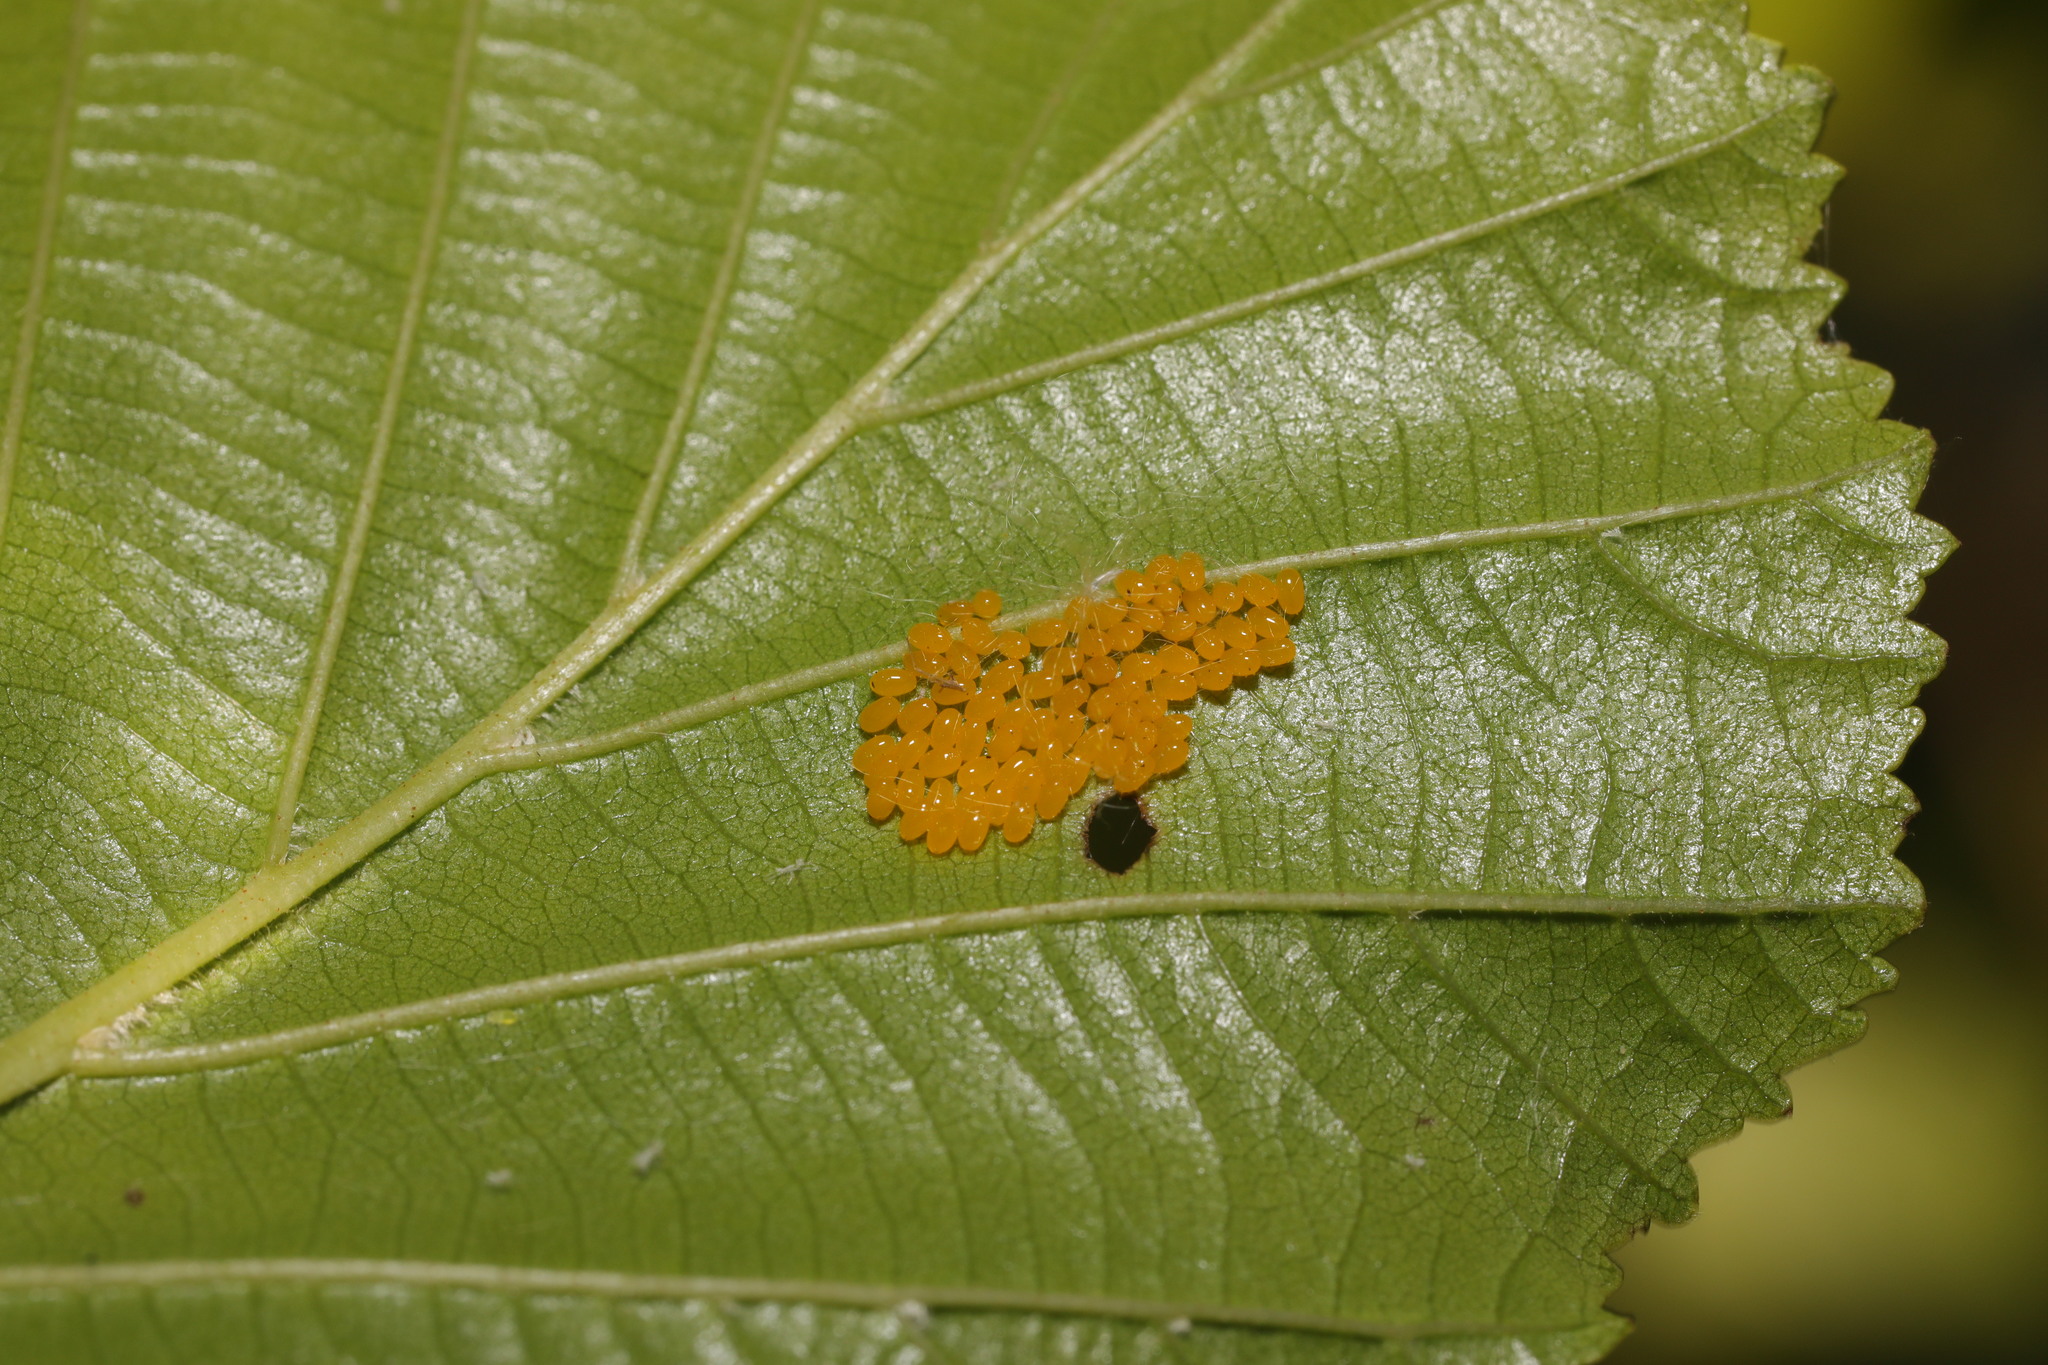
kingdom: Animalia
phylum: Arthropoda
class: Insecta
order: Coleoptera
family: Chrysomelidae
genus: Agelastica
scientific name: Agelastica alni
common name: Alder leaf beetle
